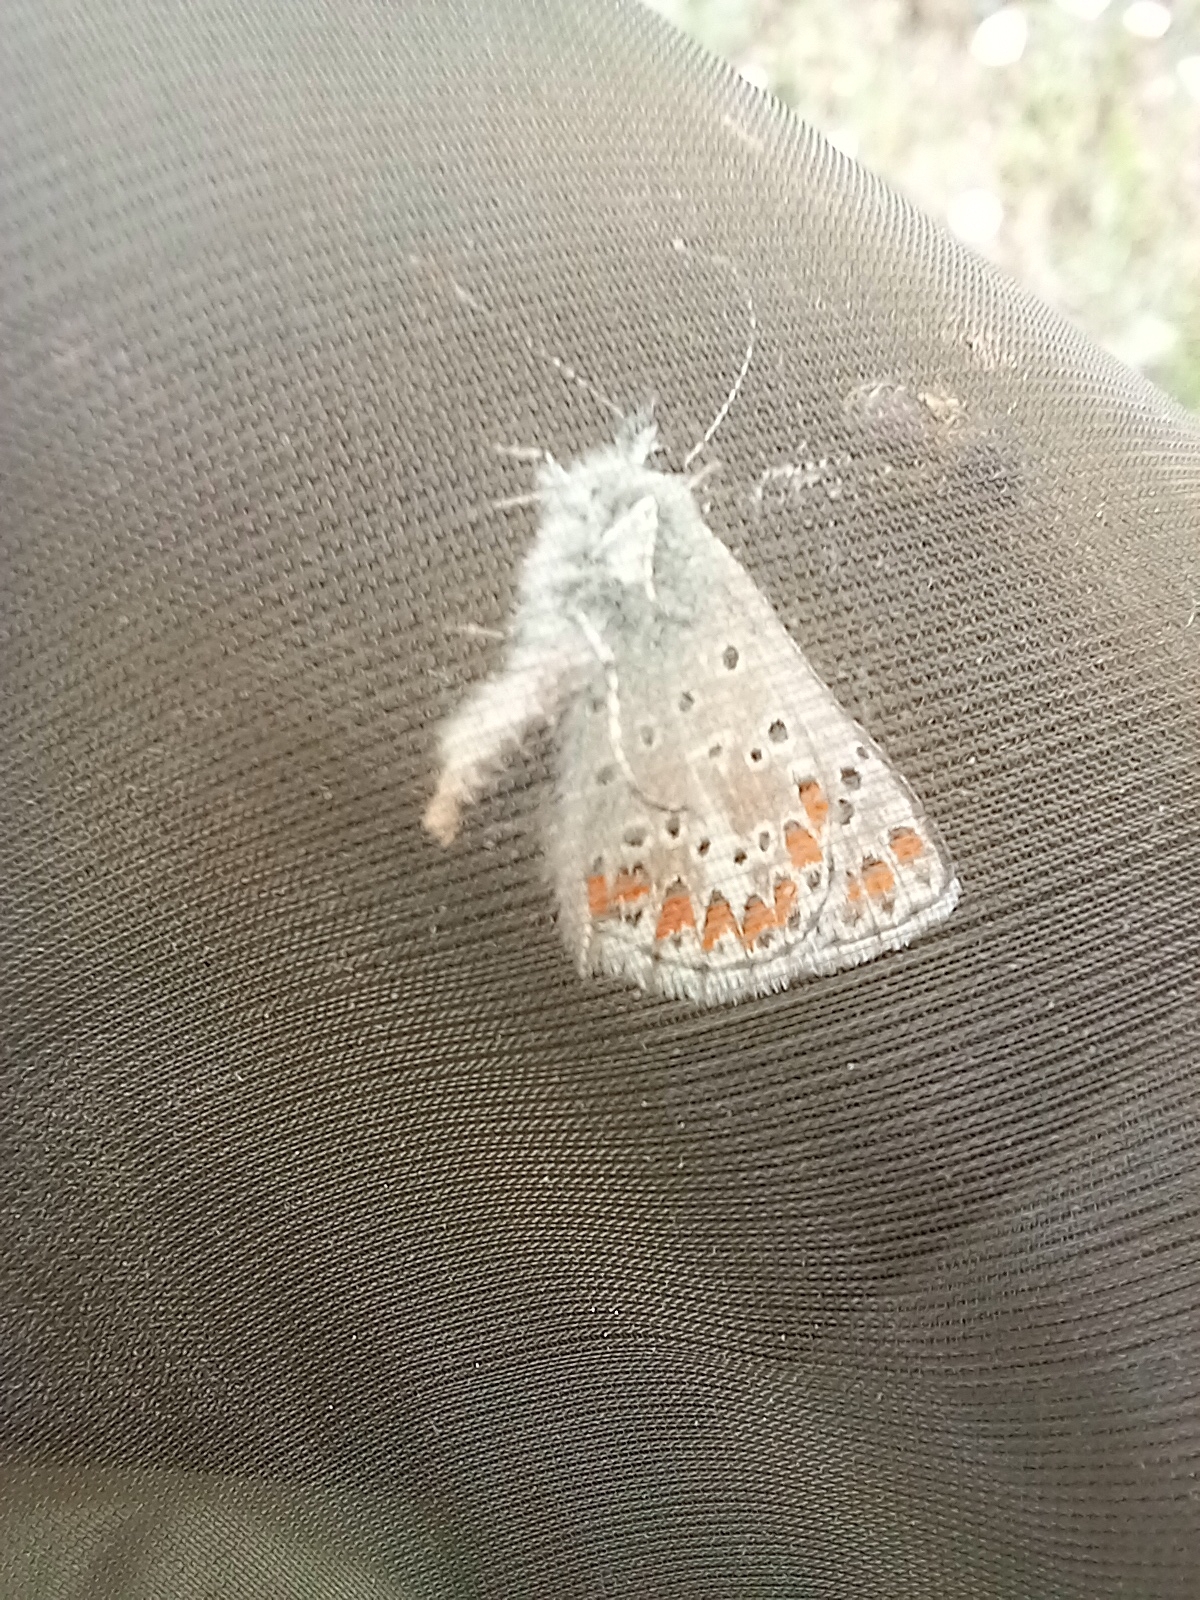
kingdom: Animalia
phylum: Arthropoda
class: Insecta
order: Lepidoptera
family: Lycaenidae
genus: Aricia
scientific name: Aricia cramera
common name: Eschscholtz´s brown  argus
